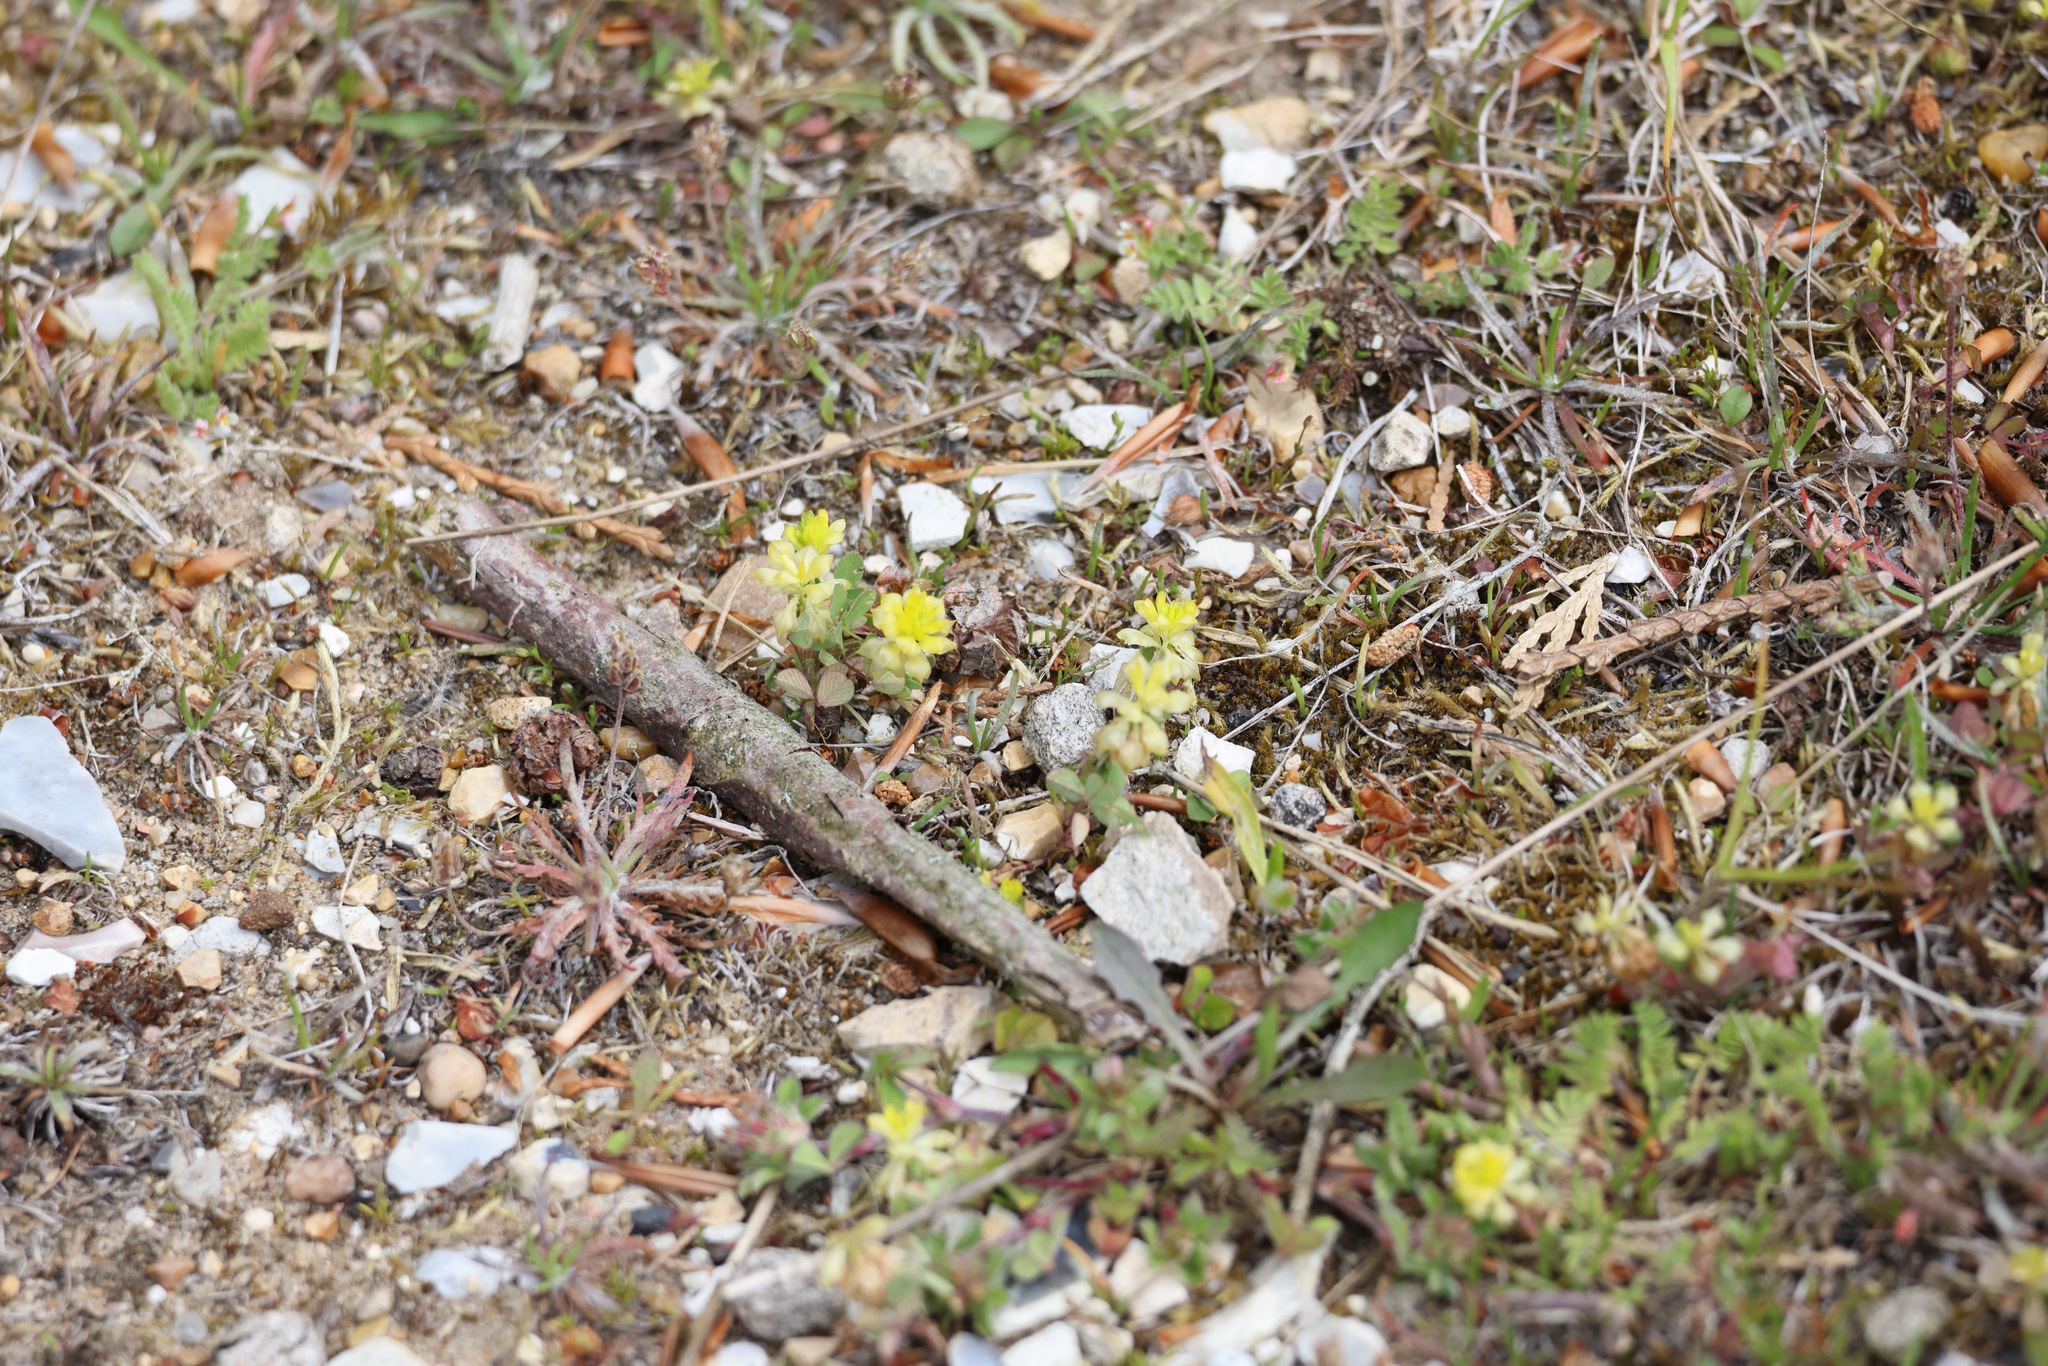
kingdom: Plantae
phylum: Tracheophyta
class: Magnoliopsida
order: Fabales
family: Fabaceae
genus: Trifolium
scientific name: Trifolium campestre
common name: Field clover
